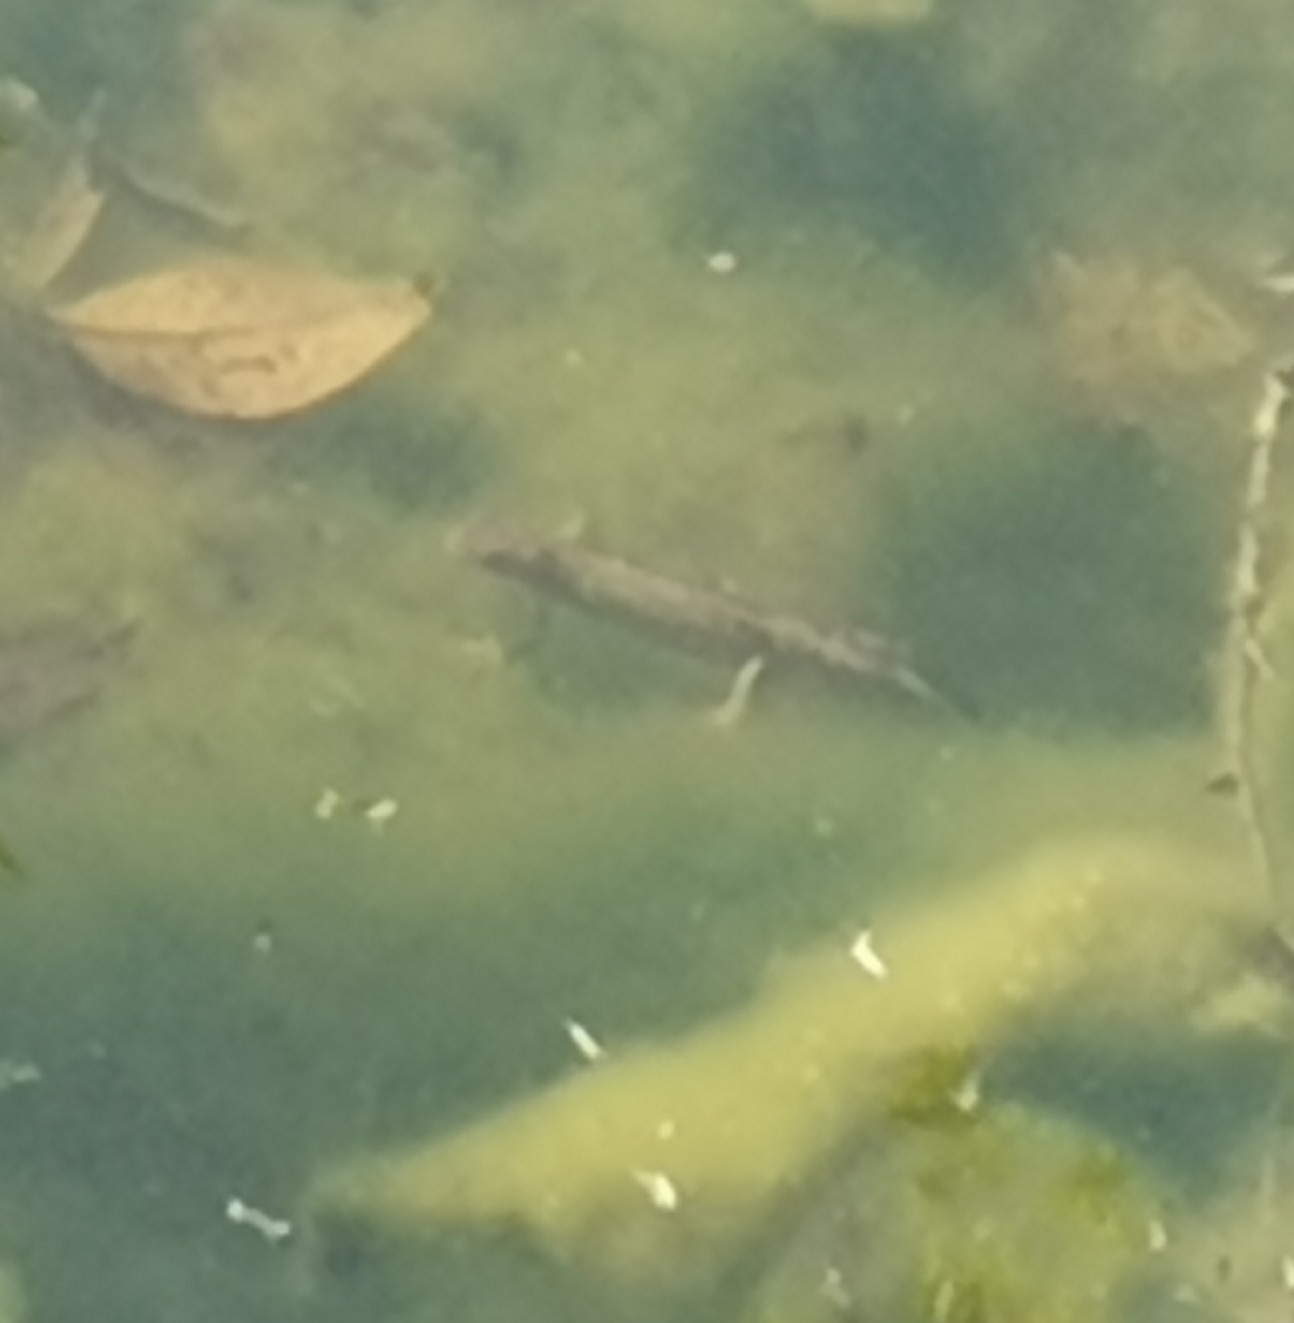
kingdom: Animalia
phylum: Chordata
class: Amphibia
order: Caudata
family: Salamandridae
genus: Triturus
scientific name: Triturus carnifex
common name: Italian crested newt
